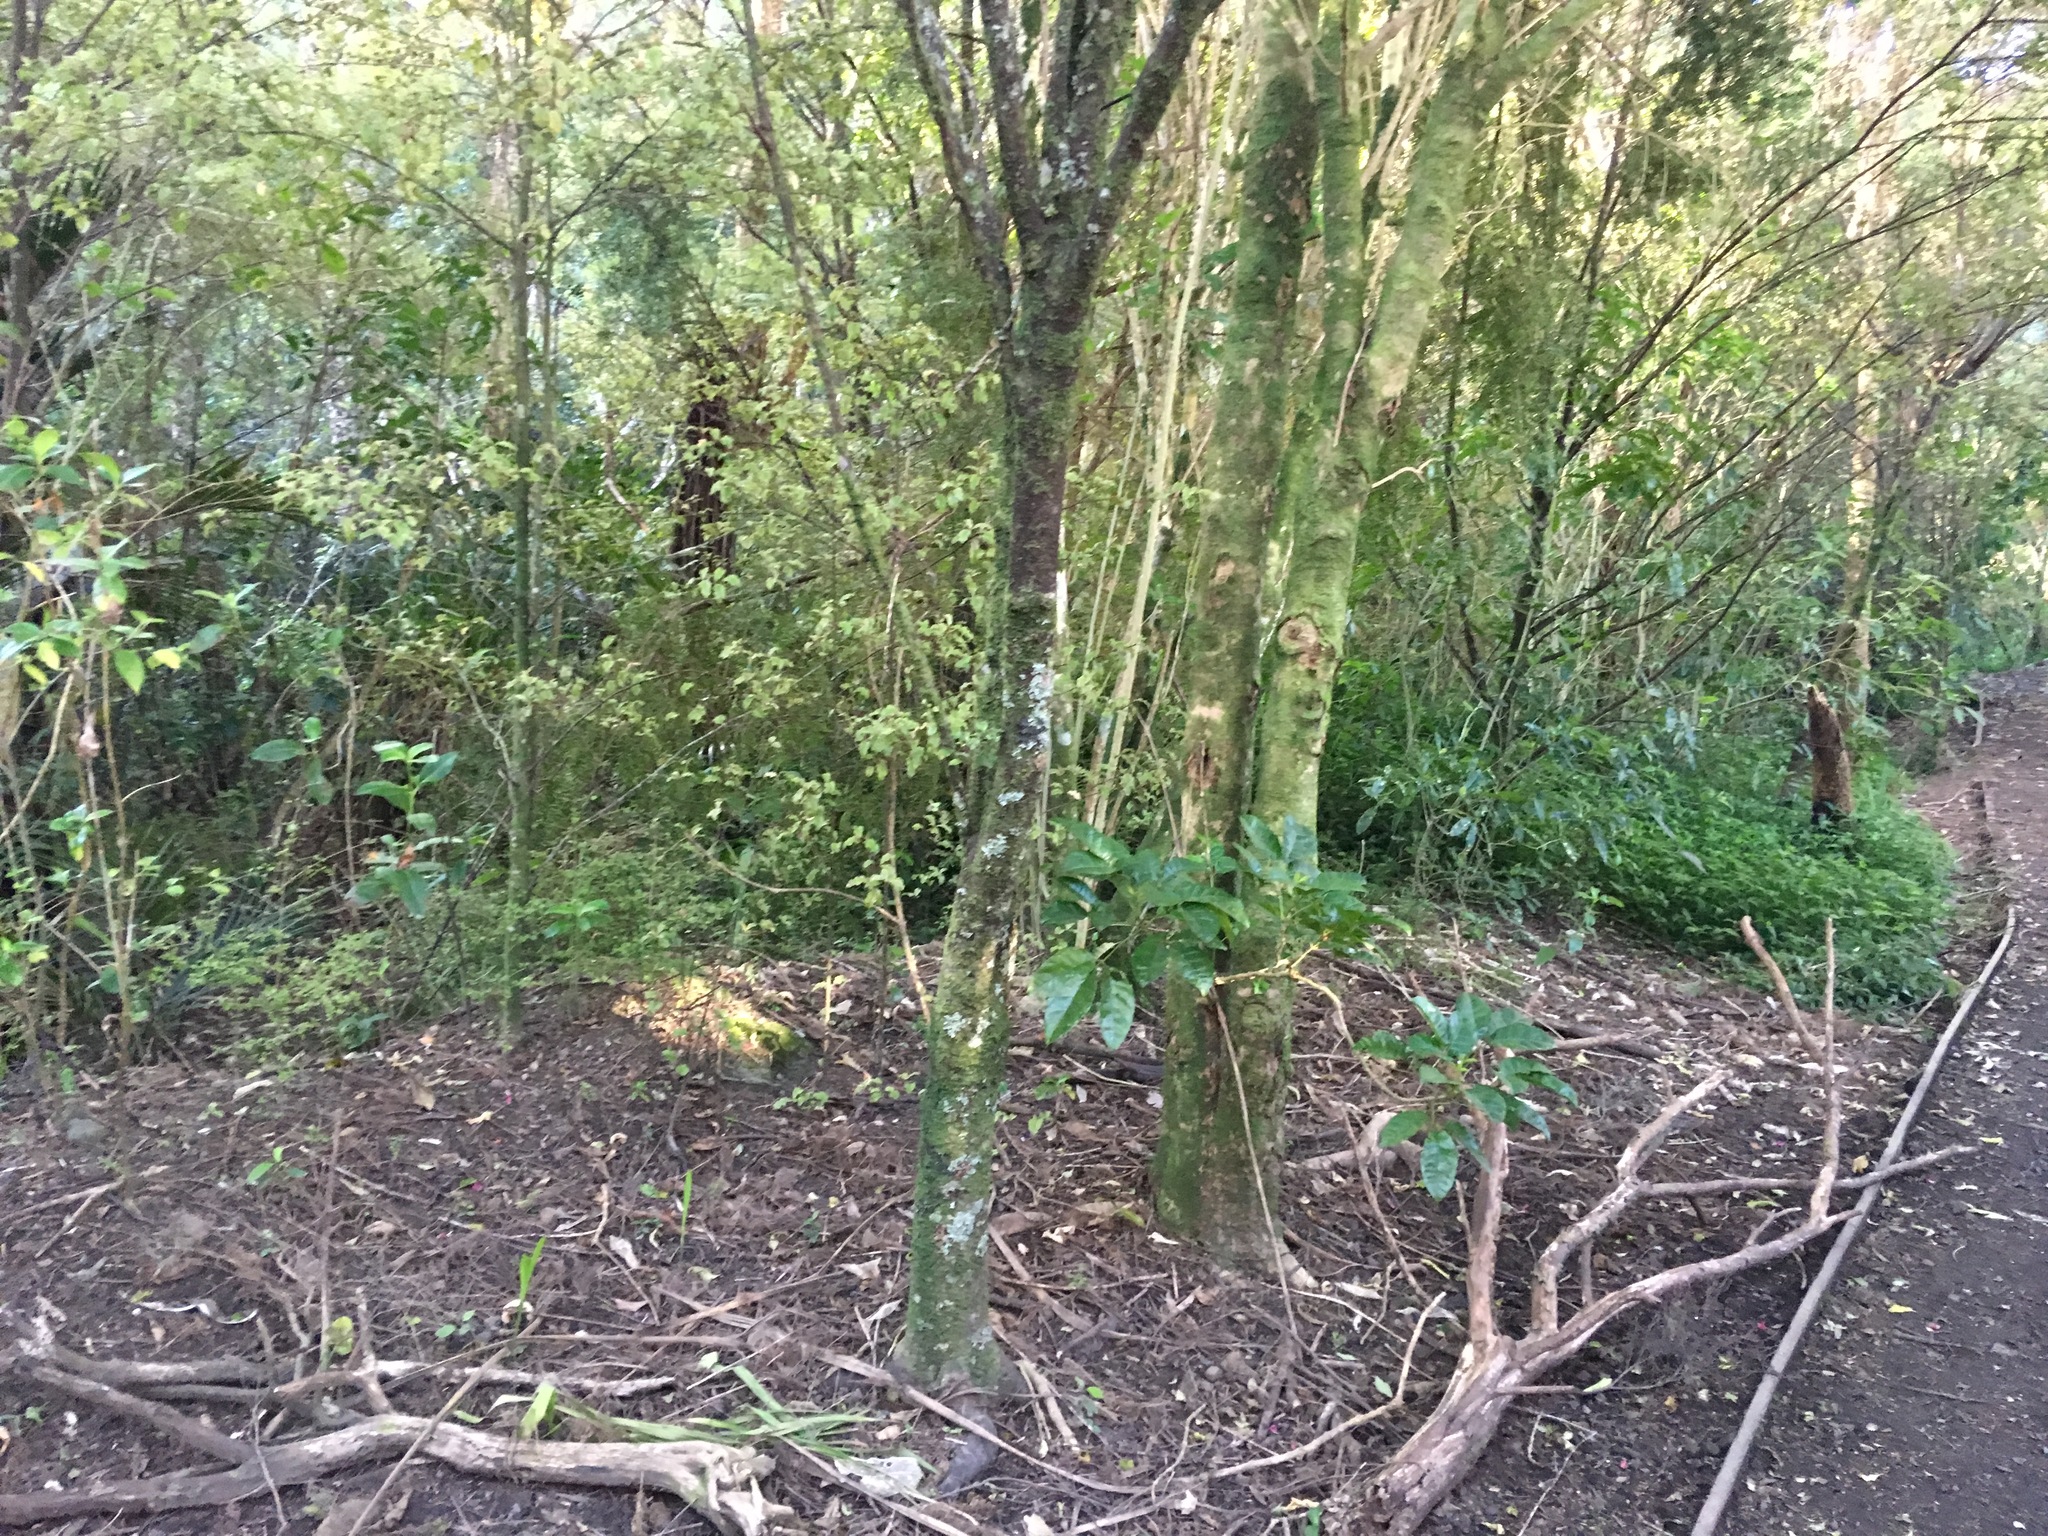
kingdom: Plantae
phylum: Tracheophyta
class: Magnoliopsida
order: Lamiales
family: Lamiaceae
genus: Vitex
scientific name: Vitex lucens
